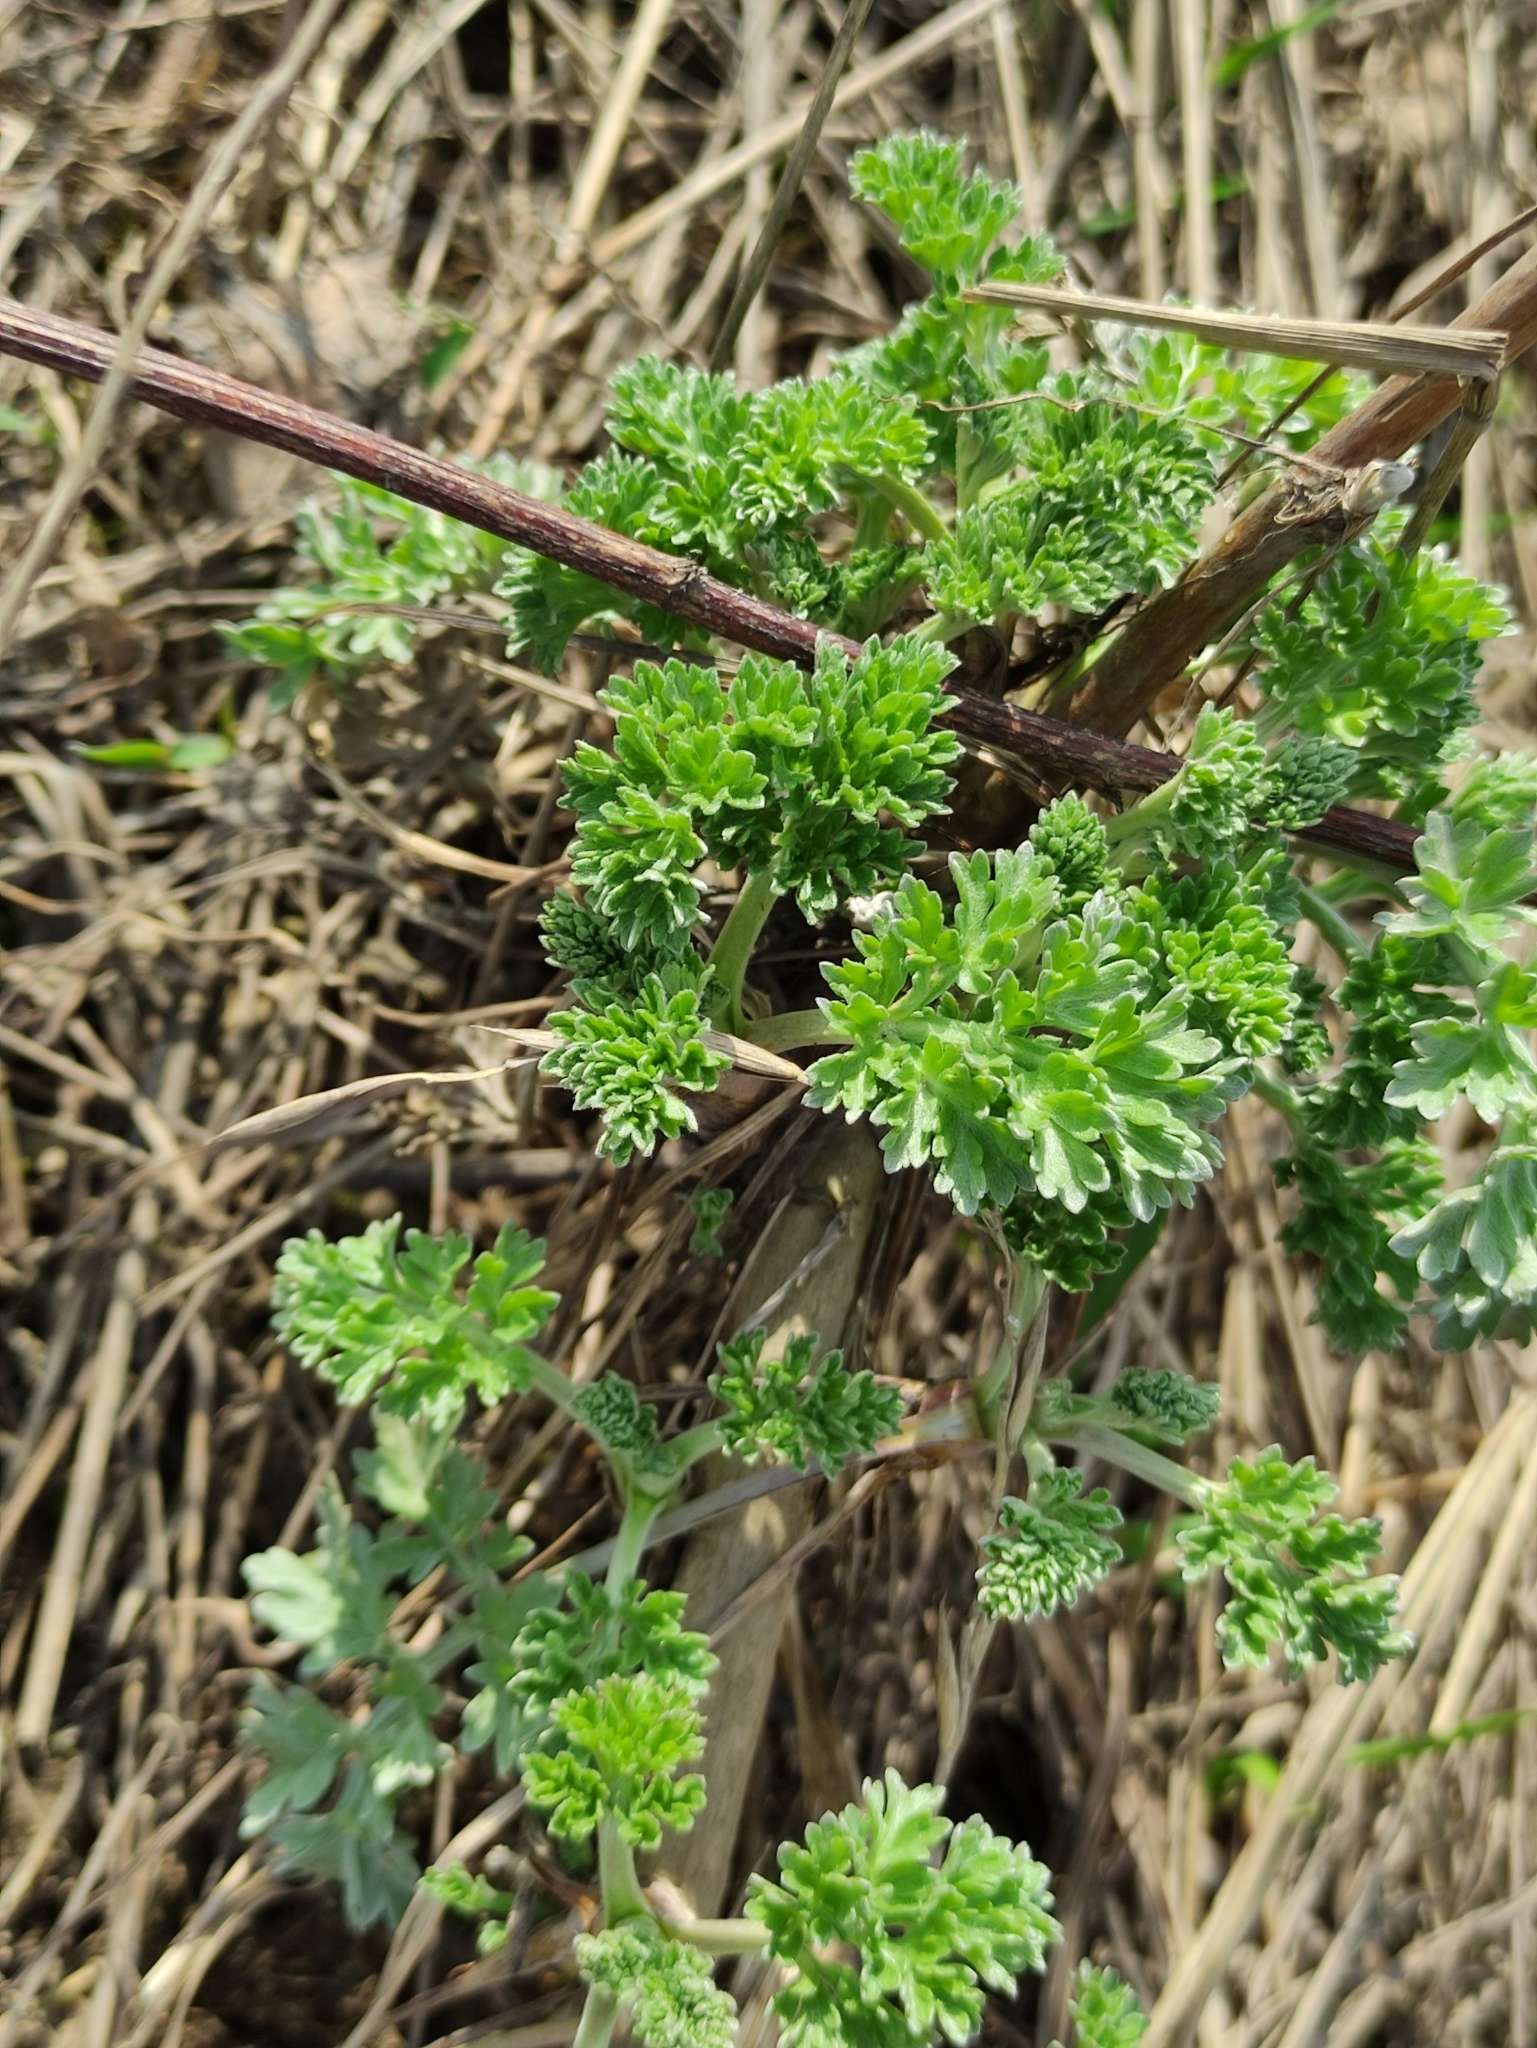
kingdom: Plantae
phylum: Tracheophyta
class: Magnoliopsida
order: Asterales
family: Asteraceae
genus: Artemisia
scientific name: Artemisia absinthium
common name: Wormwood
